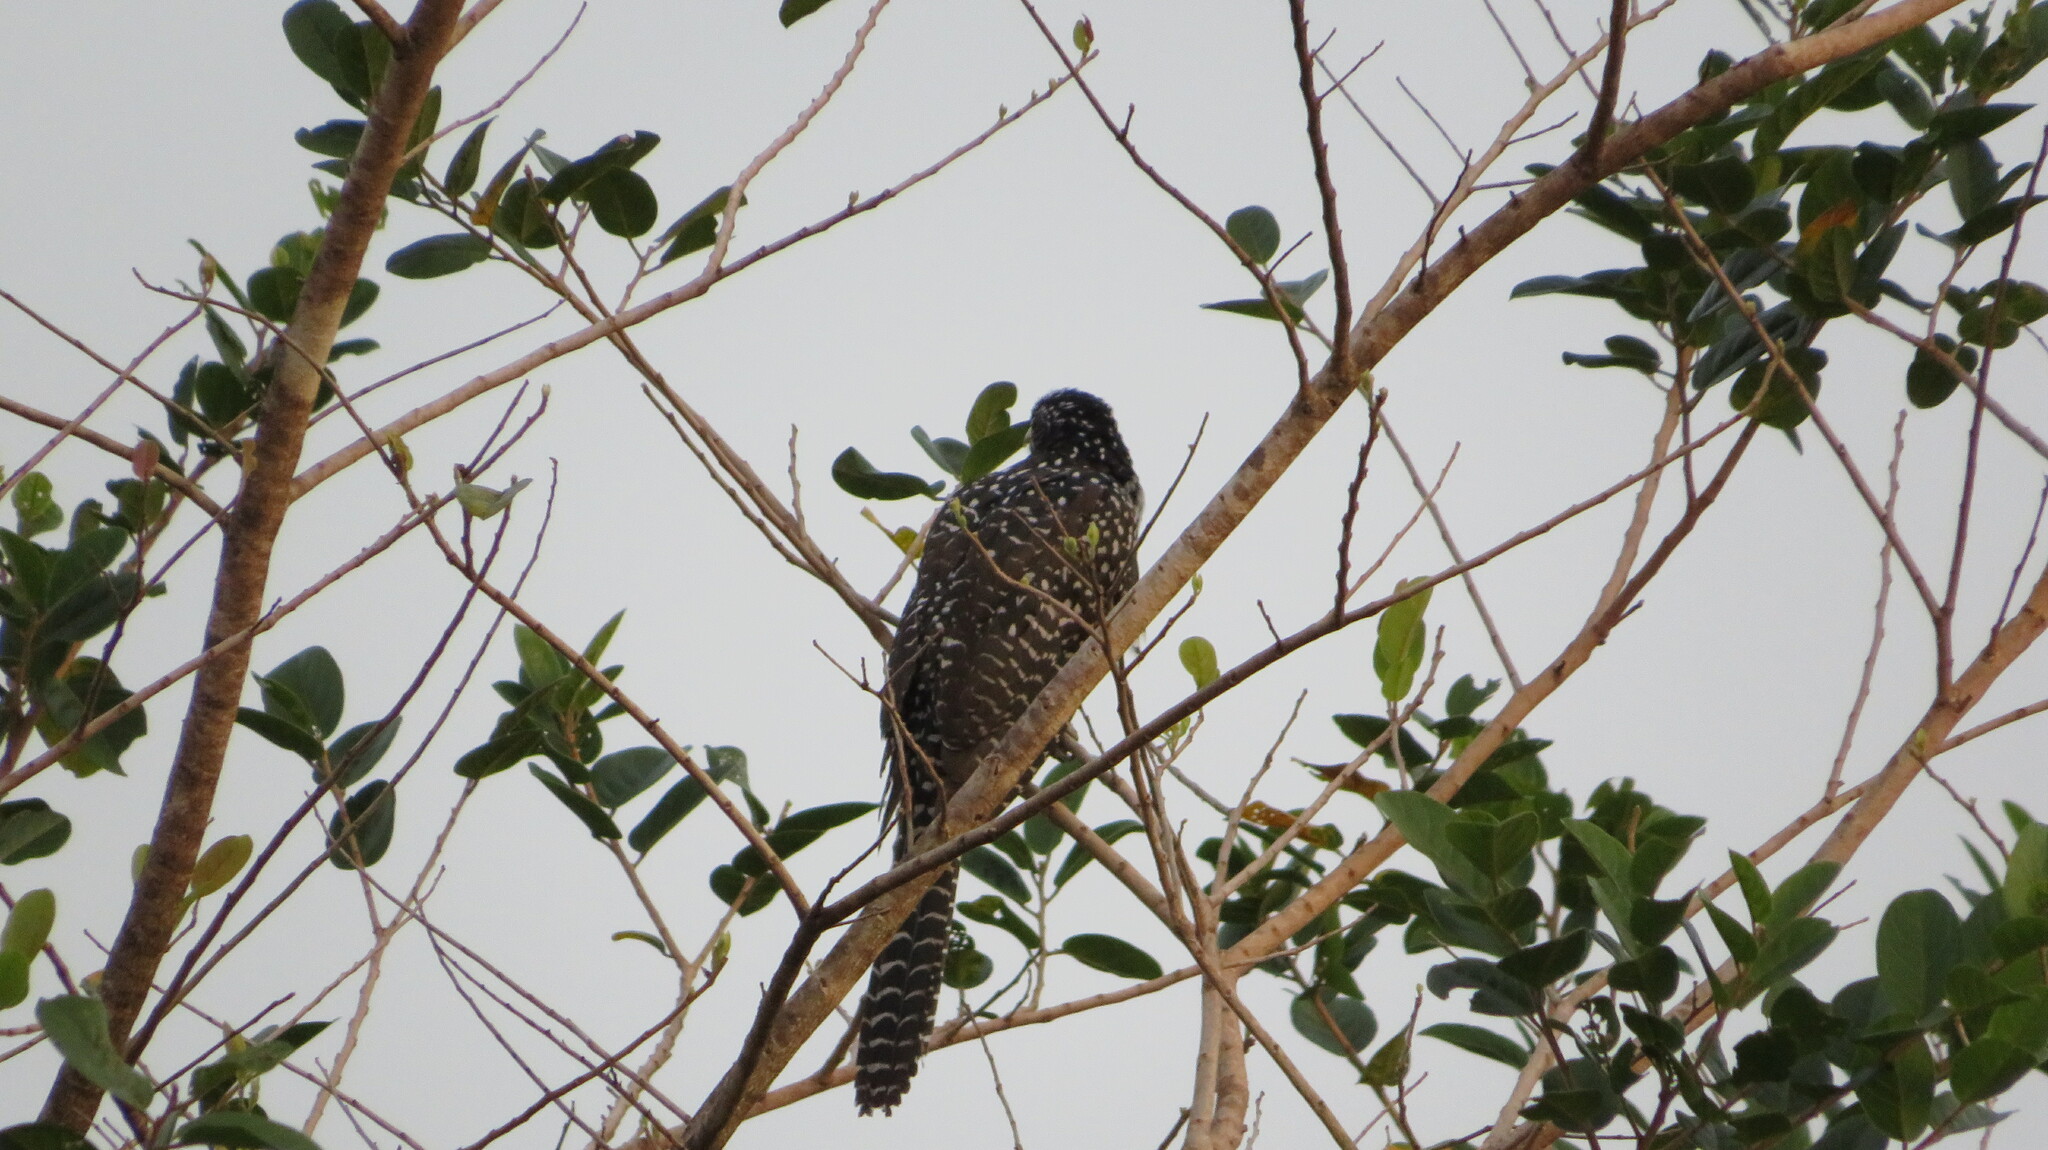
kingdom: Animalia
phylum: Chordata
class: Aves
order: Cuculiformes
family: Cuculidae
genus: Eudynamys
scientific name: Eudynamys scolopaceus
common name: Asian koel
